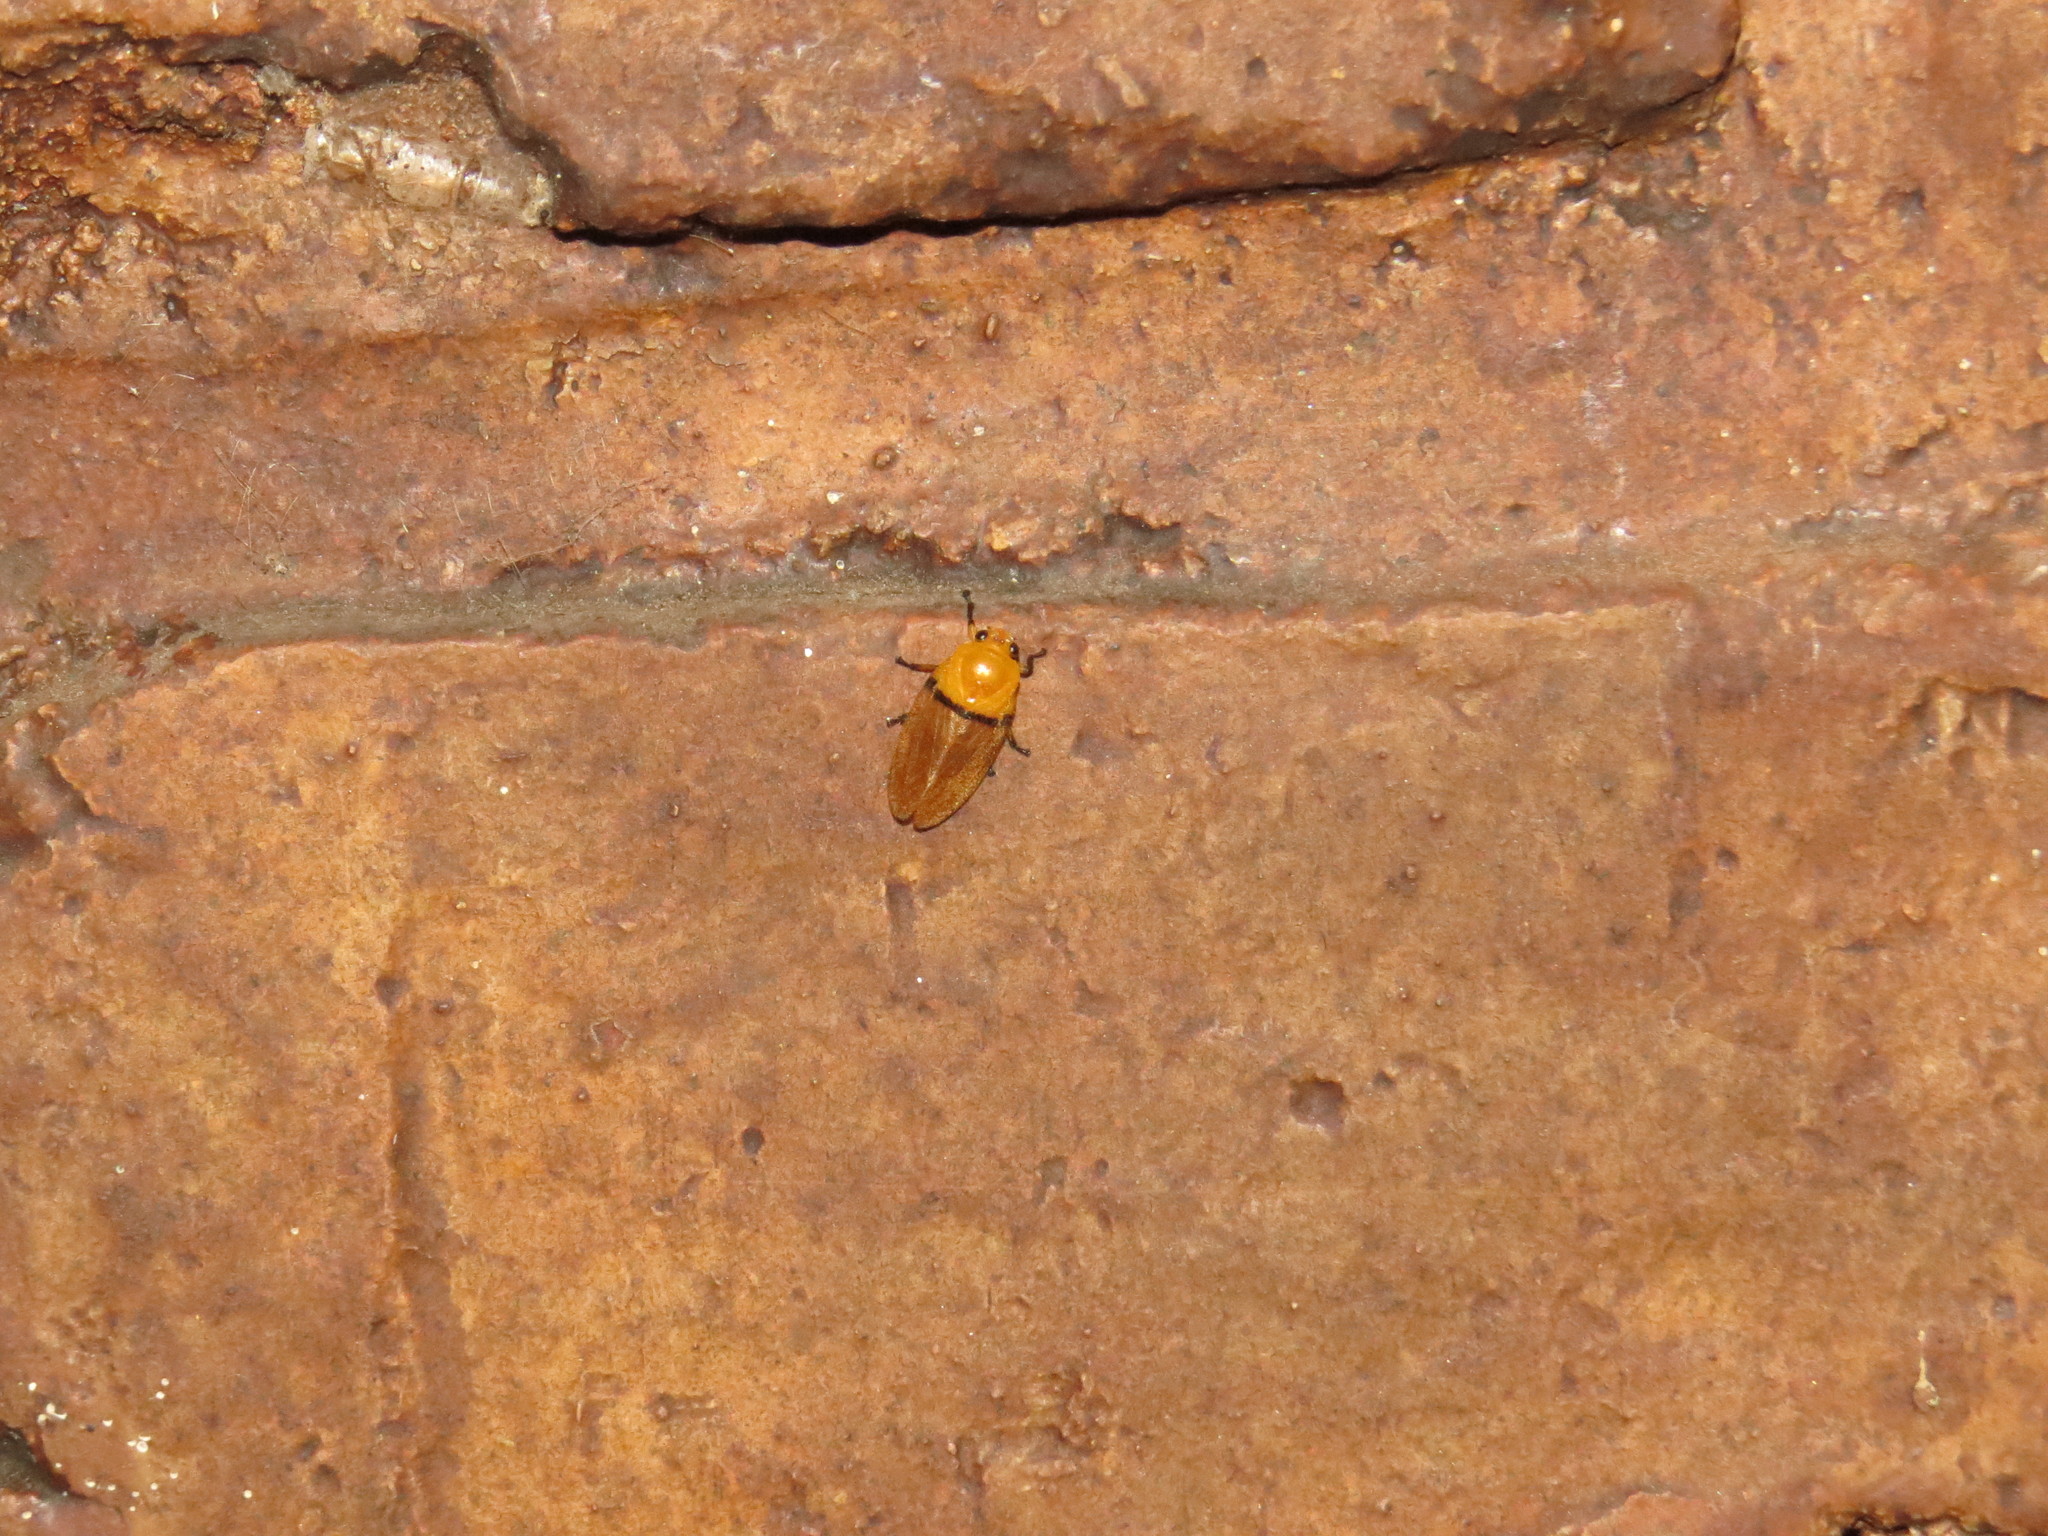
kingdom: Animalia
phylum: Arthropoda
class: Insecta
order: Hemiptera
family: Cercopidae
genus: Monecphora
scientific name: Monecphora cingulata
